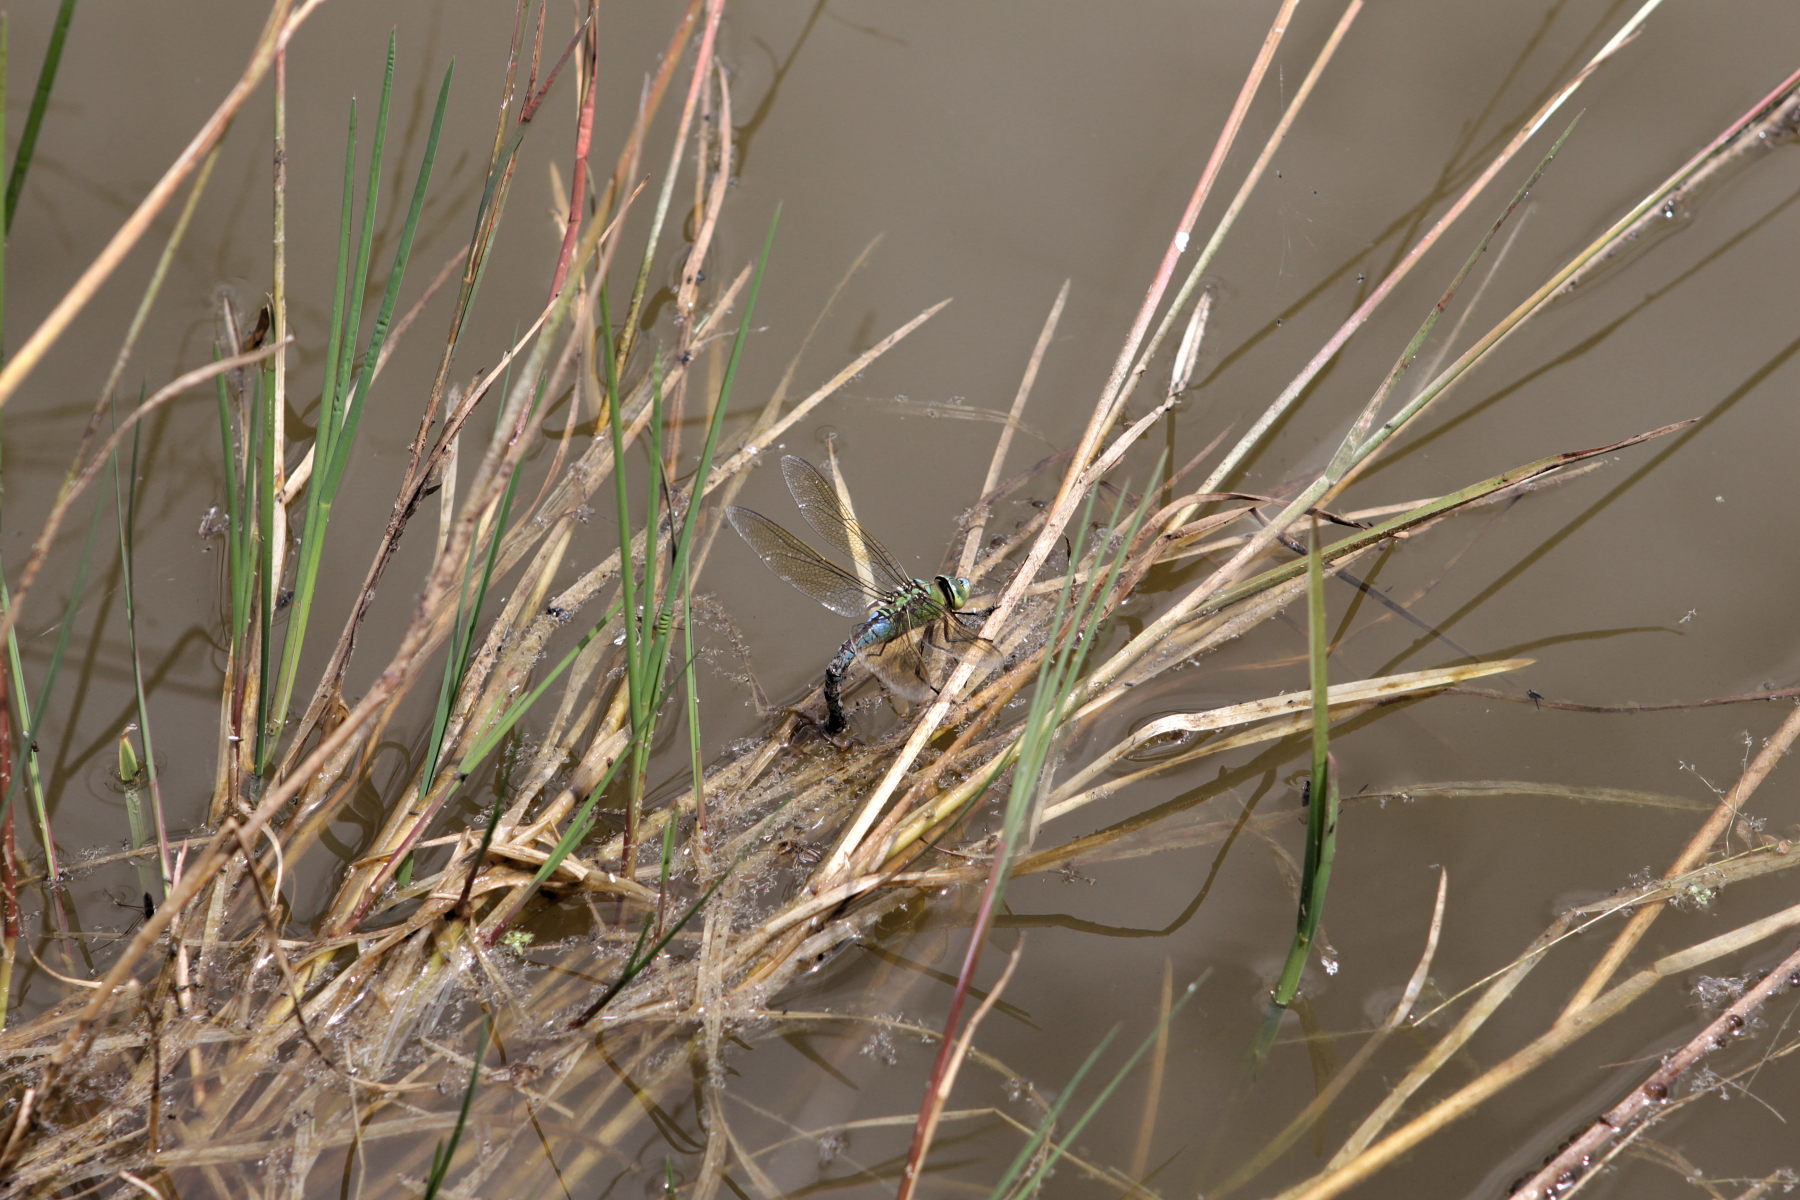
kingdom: Animalia
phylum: Arthropoda
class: Insecta
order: Odonata
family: Aeshnidae
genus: Anax
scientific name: Anax imperator
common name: Emperor dragonfly
